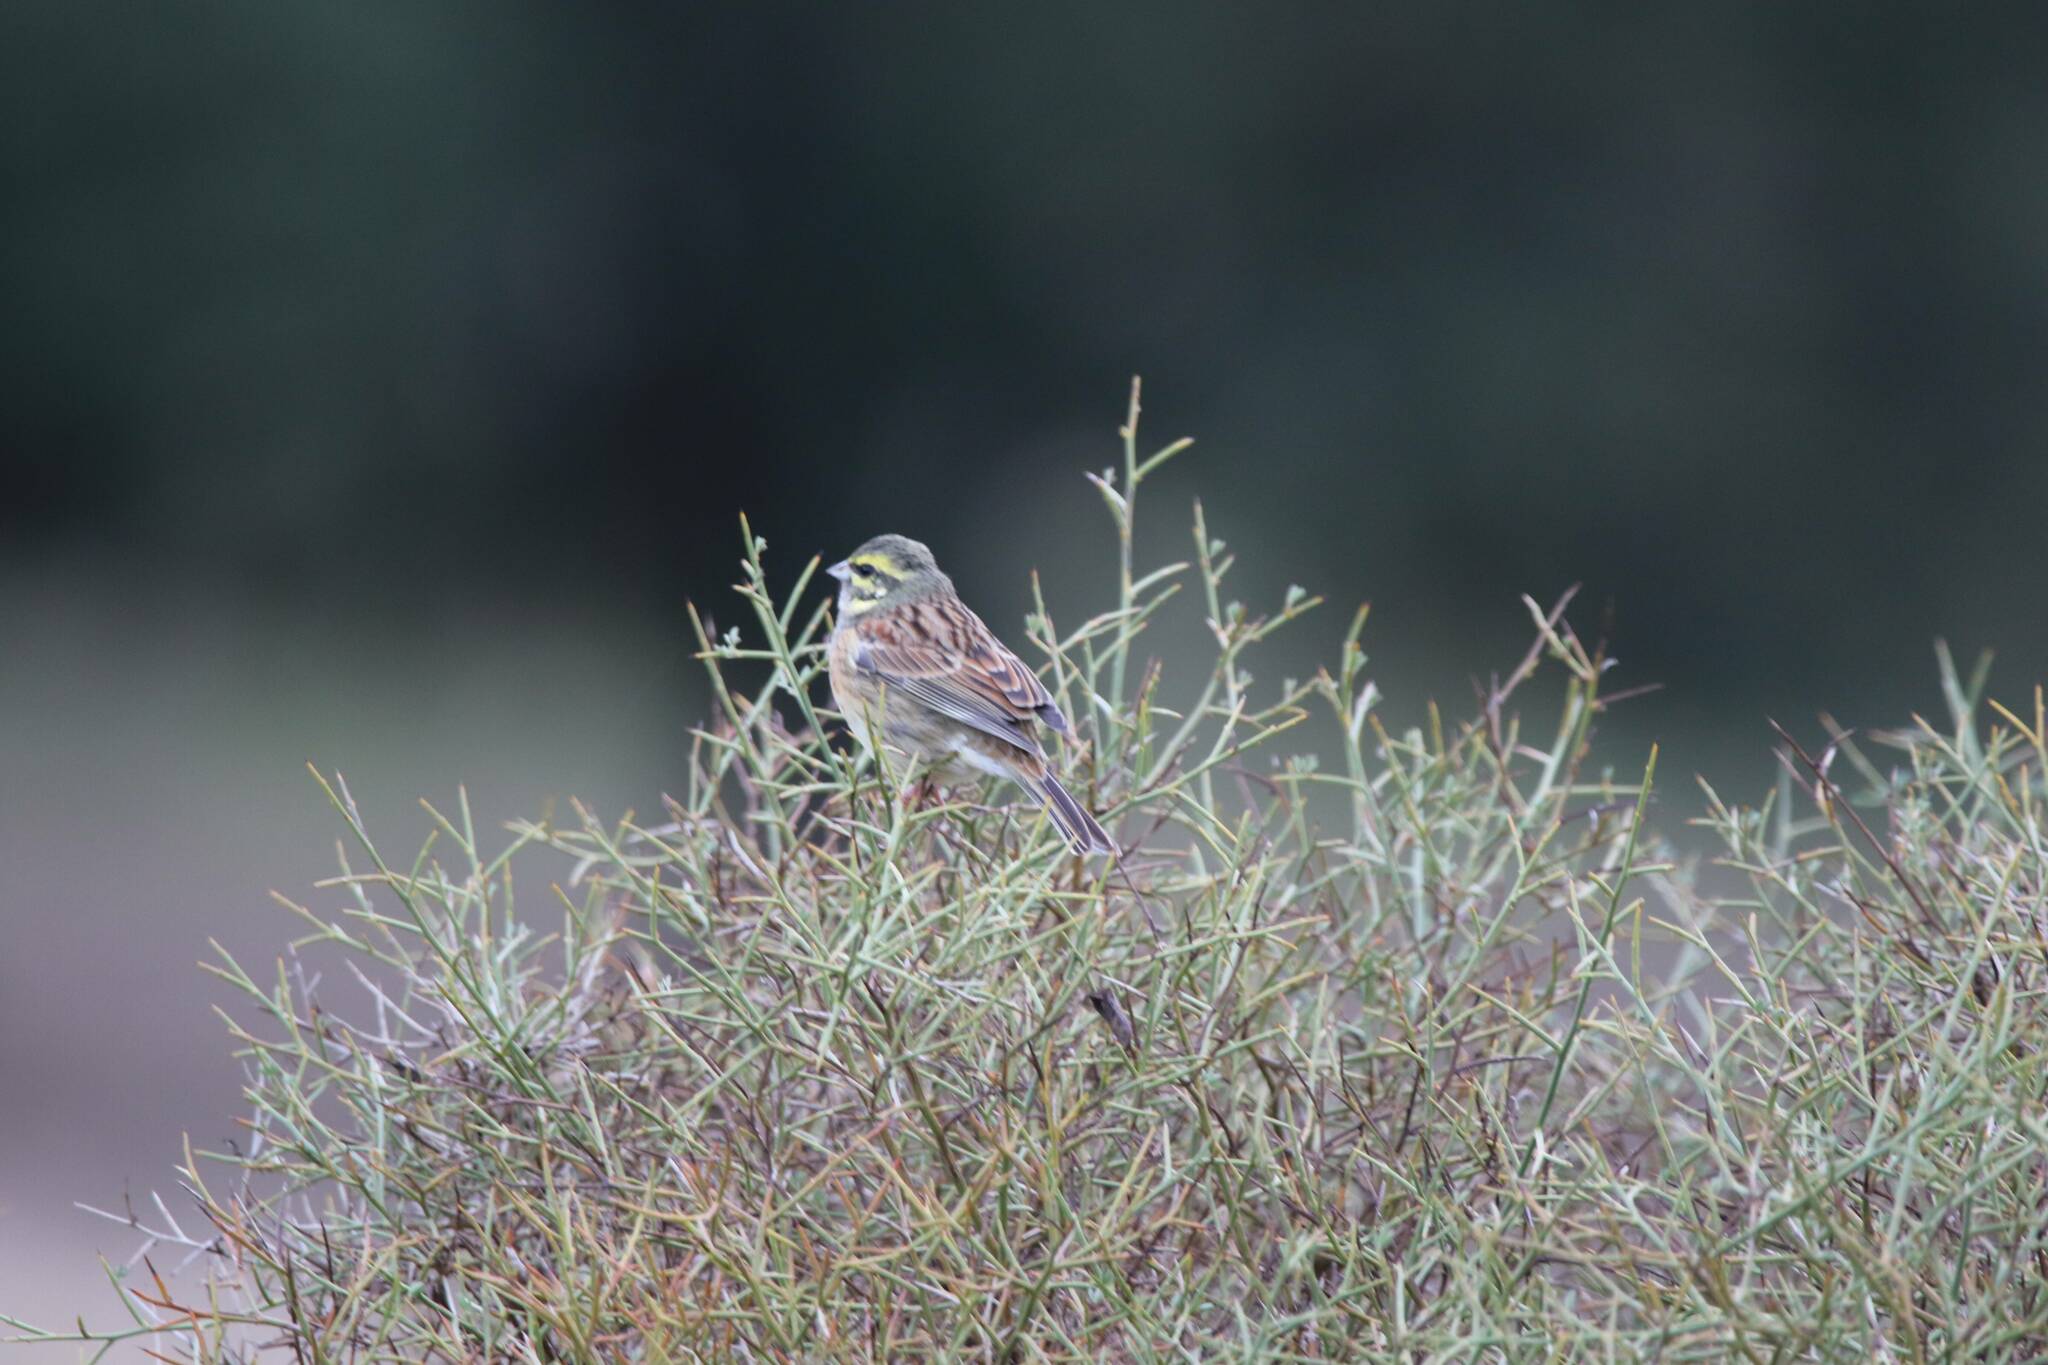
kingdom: Animalia
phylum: Chordata
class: Aves
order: Passeriformes
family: Emberizidae
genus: Emberiza
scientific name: Emberiza cirlus
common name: Cirl bunting
